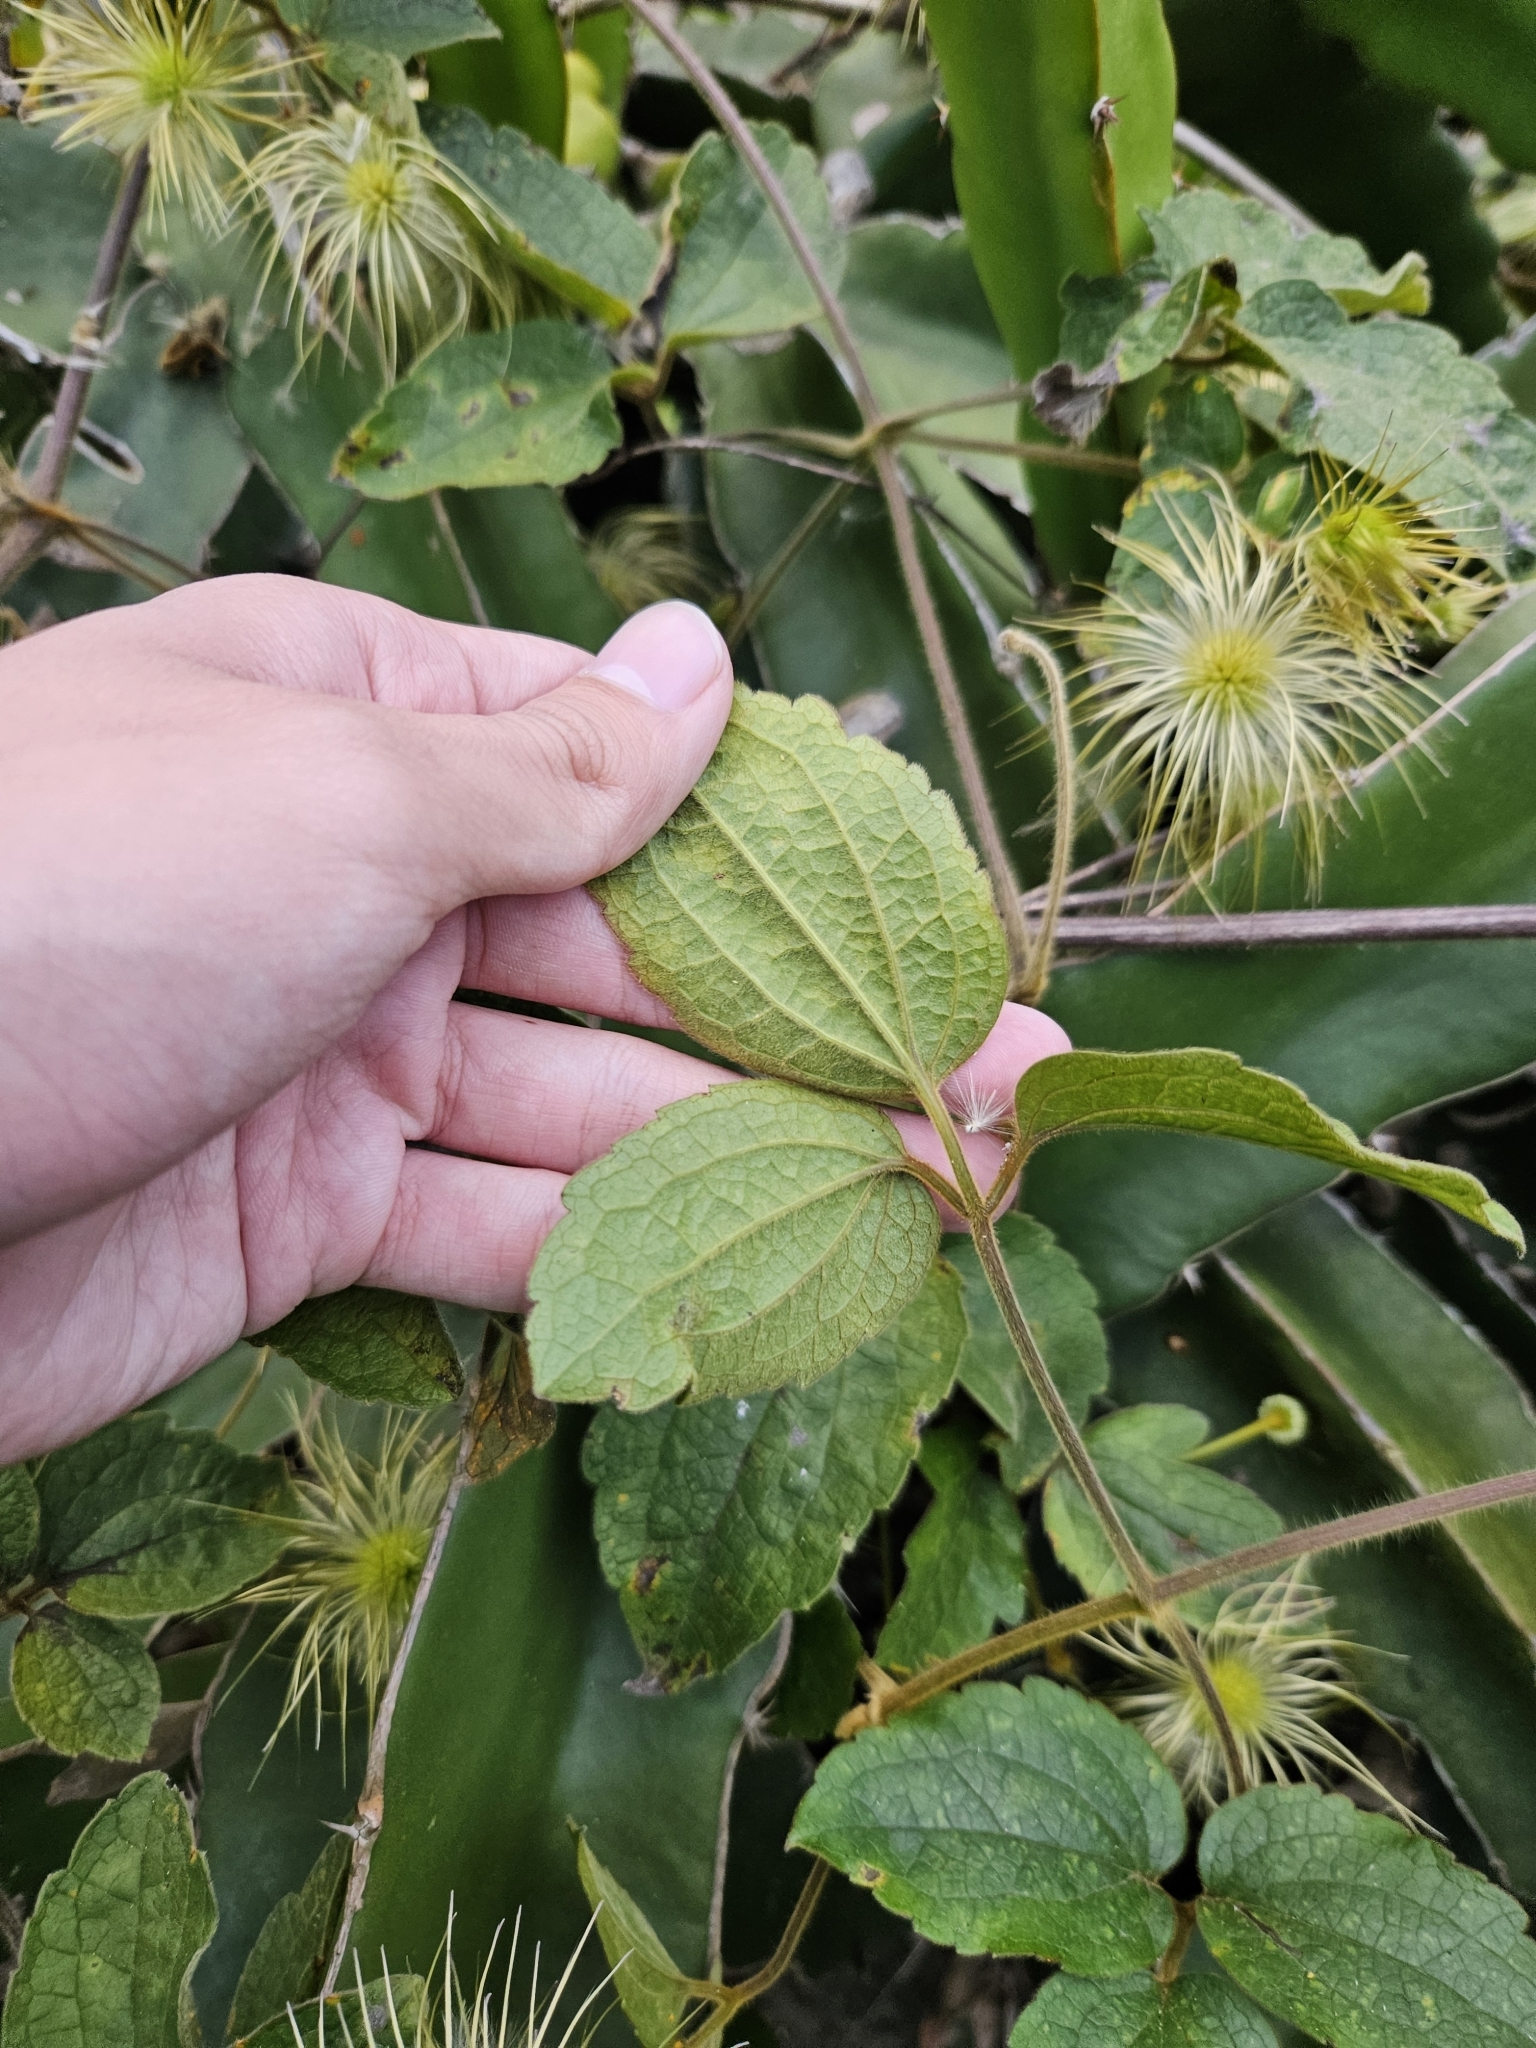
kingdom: Plantae
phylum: Tracheophyta
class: Magnoliopsida
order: Ranunculales
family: Ranunculaceae
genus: Clematis
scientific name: Clematis leschenaultiana
